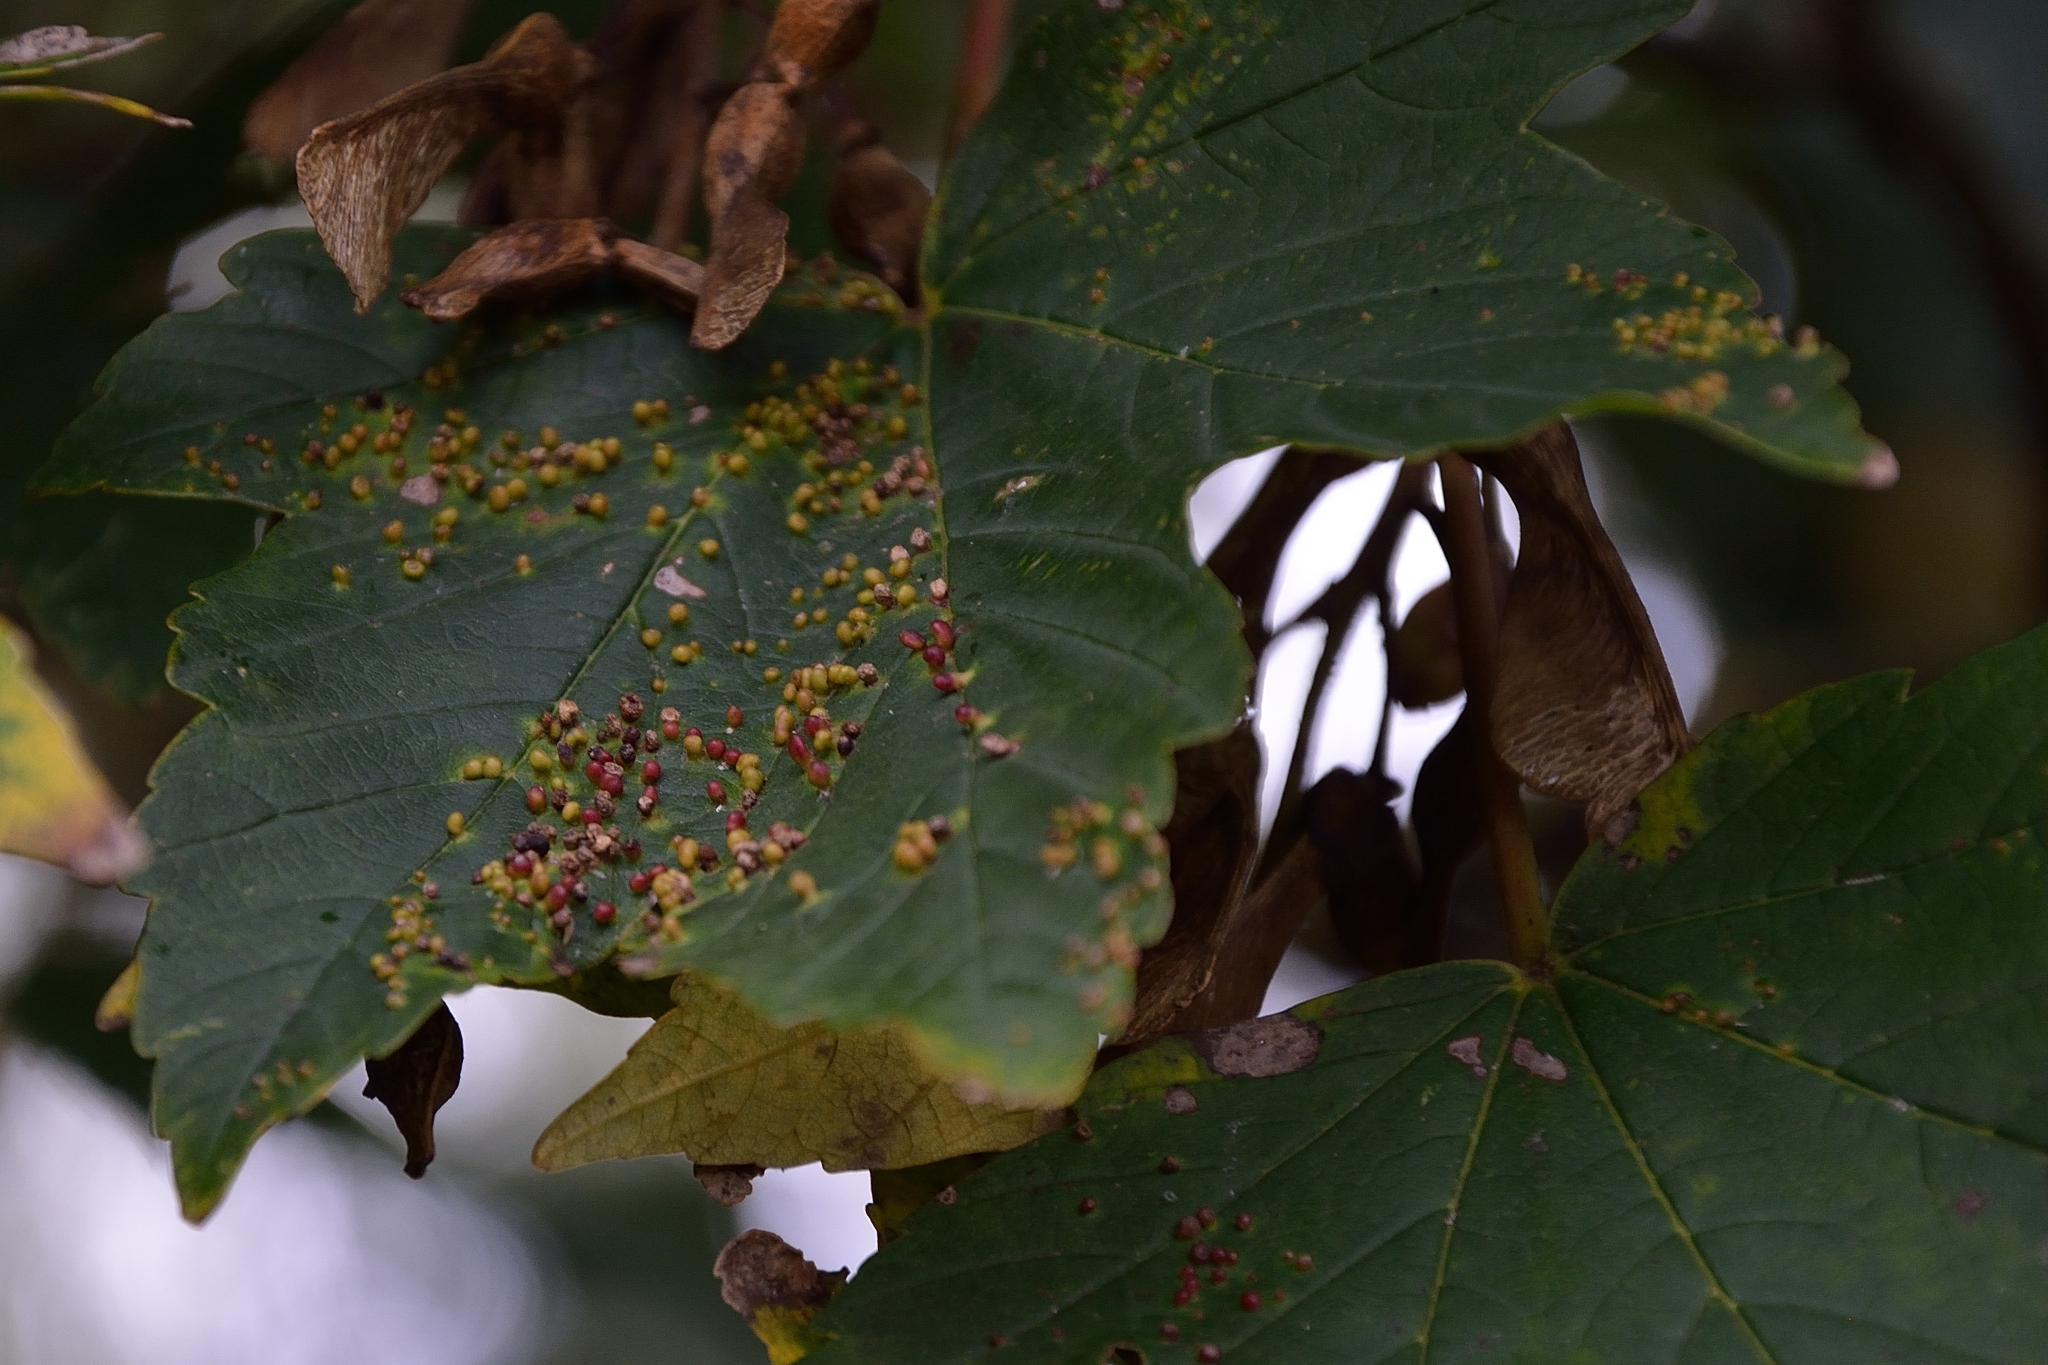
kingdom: Animalia
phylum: Arthropoda
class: Arachnida
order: Trombidiformes
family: Eriophyidae
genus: Aceria
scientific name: Aceria cephaloneus
